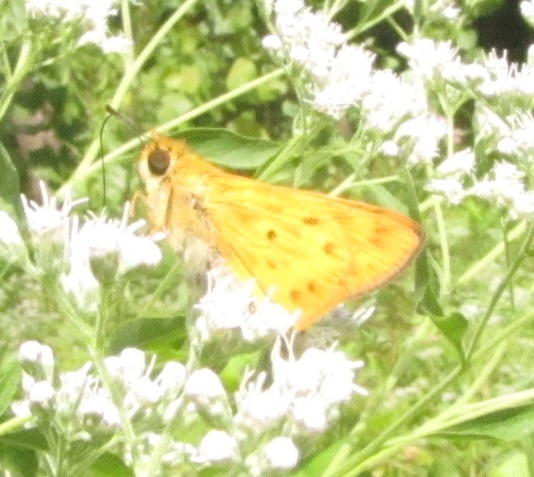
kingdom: Animalia
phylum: Arthropoda
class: Insecta
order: Lepidoptera
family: Hesperiidae
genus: Hylephila
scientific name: Hylephila phyleus
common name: Fiery skipper
